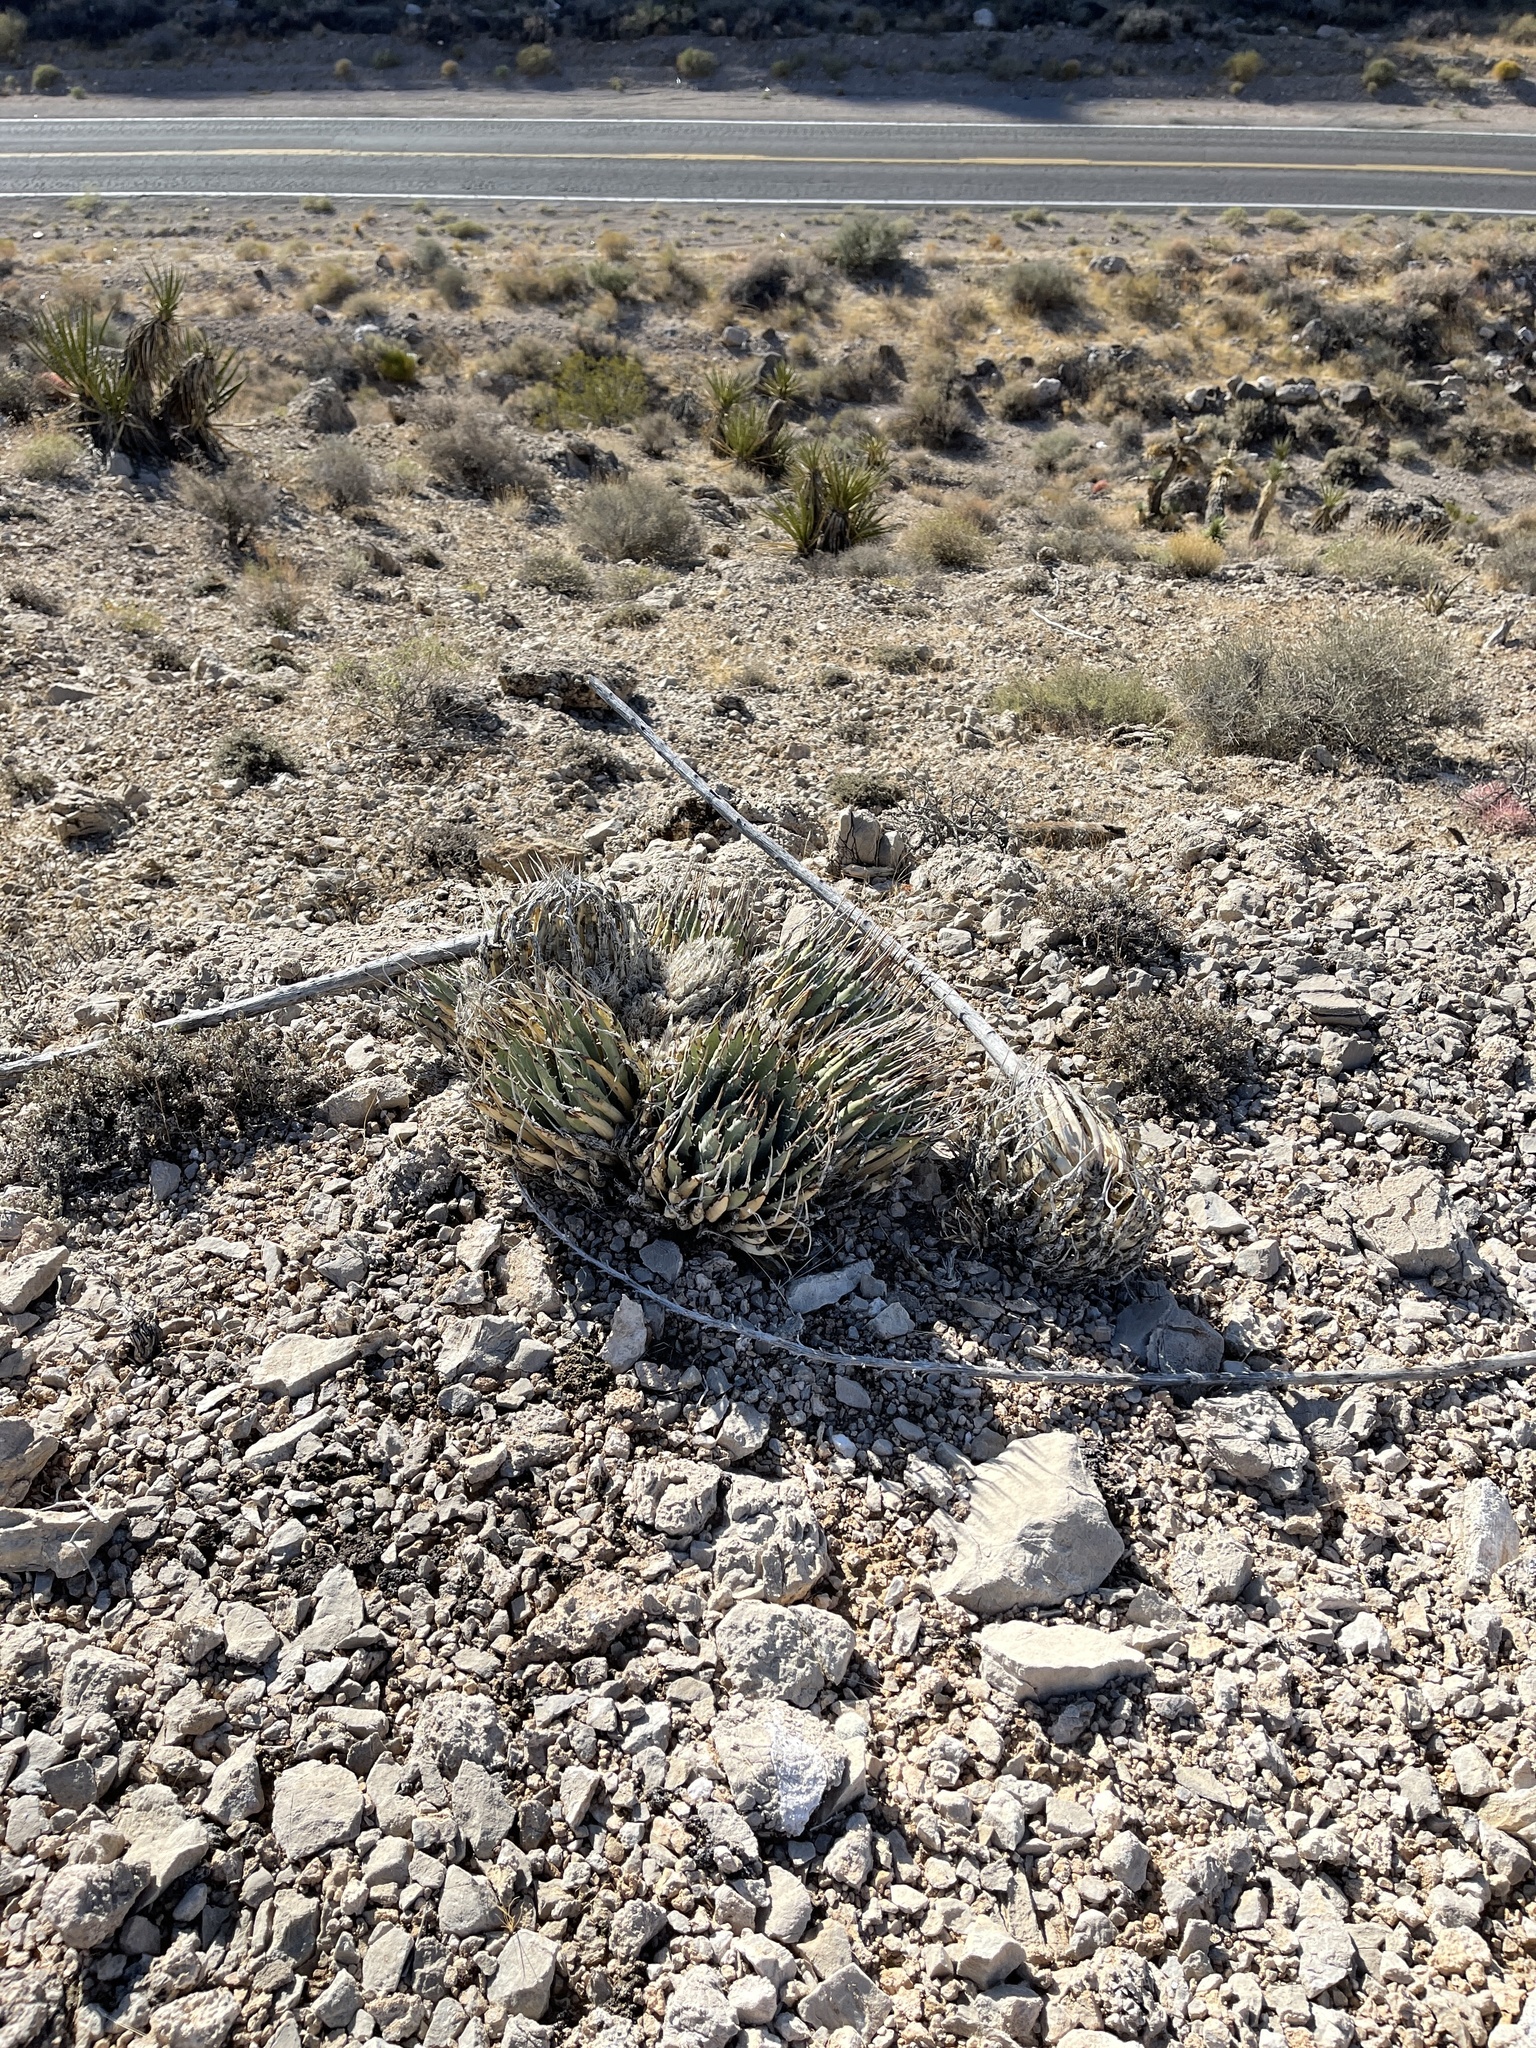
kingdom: Plantae
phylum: Tracheophyta
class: Liliopsida
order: Asparagales
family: Asparagaceae
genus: Agave
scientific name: Agave utahensis
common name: Utah agave
